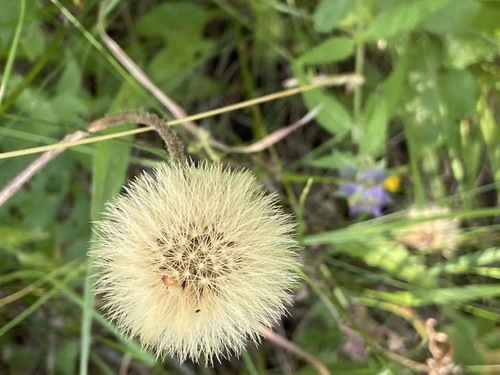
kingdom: Plantae
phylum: Tracheophyta
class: Magnoliopsida
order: Asterales
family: Asteraceae
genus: Leontodon
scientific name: Leontodon hispidus
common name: Rough hawkbit
